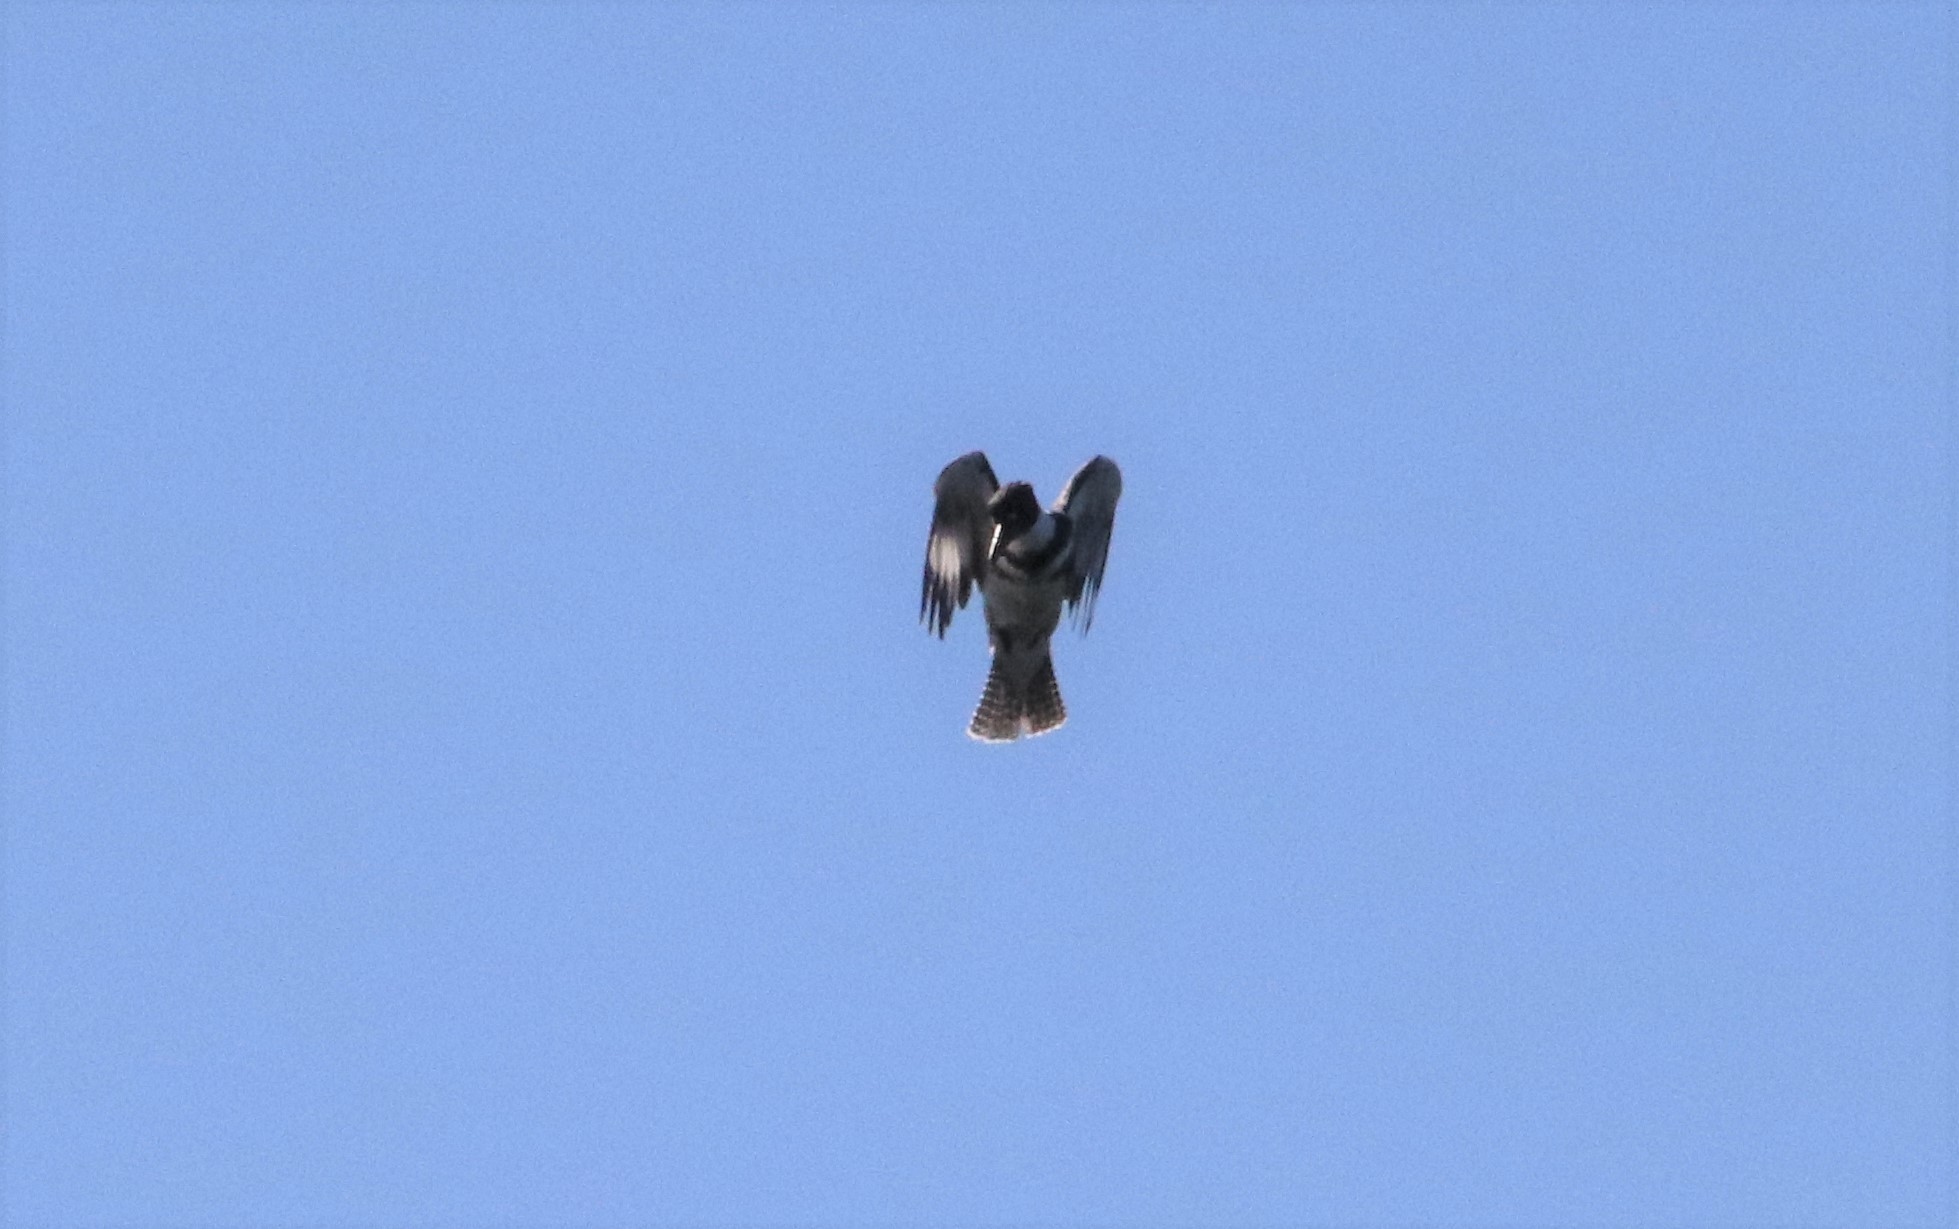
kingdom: Animalia
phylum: Chordata
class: Aves
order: Coraciiformes
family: Alcedinidae
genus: Megaceryle
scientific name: Megaceryle alcyon
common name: Belted kingfisher
